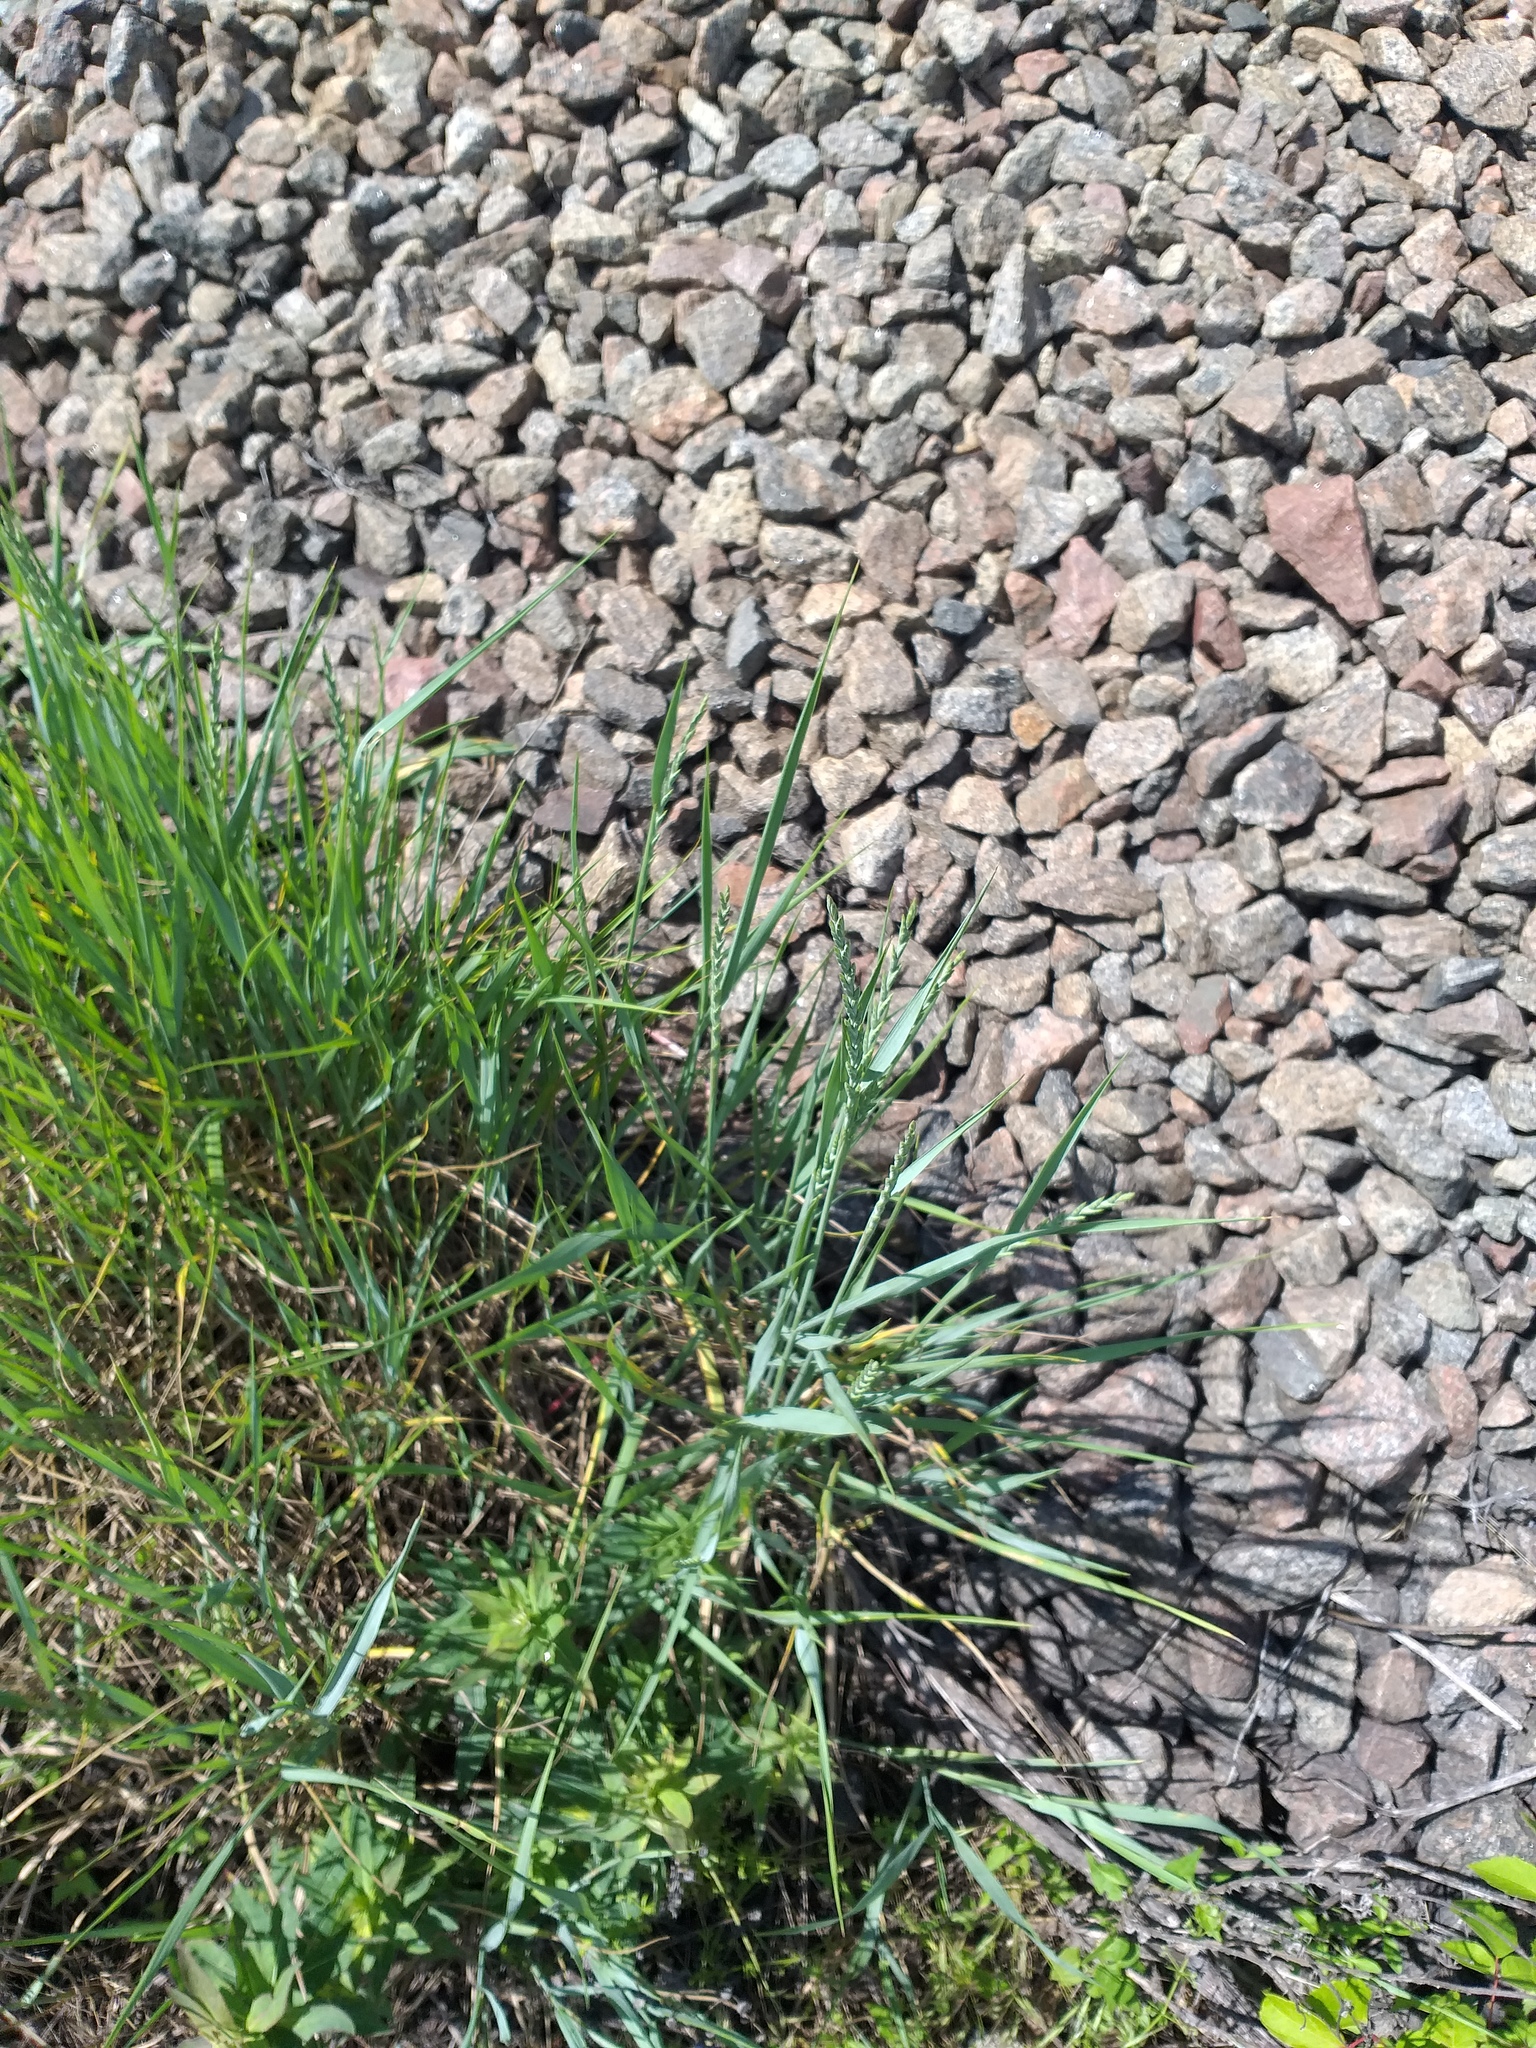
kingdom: Plantae
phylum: Tracheophyta
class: Liliopsida
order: Poales
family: Poaceae
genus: Thinopyrum
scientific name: Thinopyrum intermedium
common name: Intermediate wheatgrass
